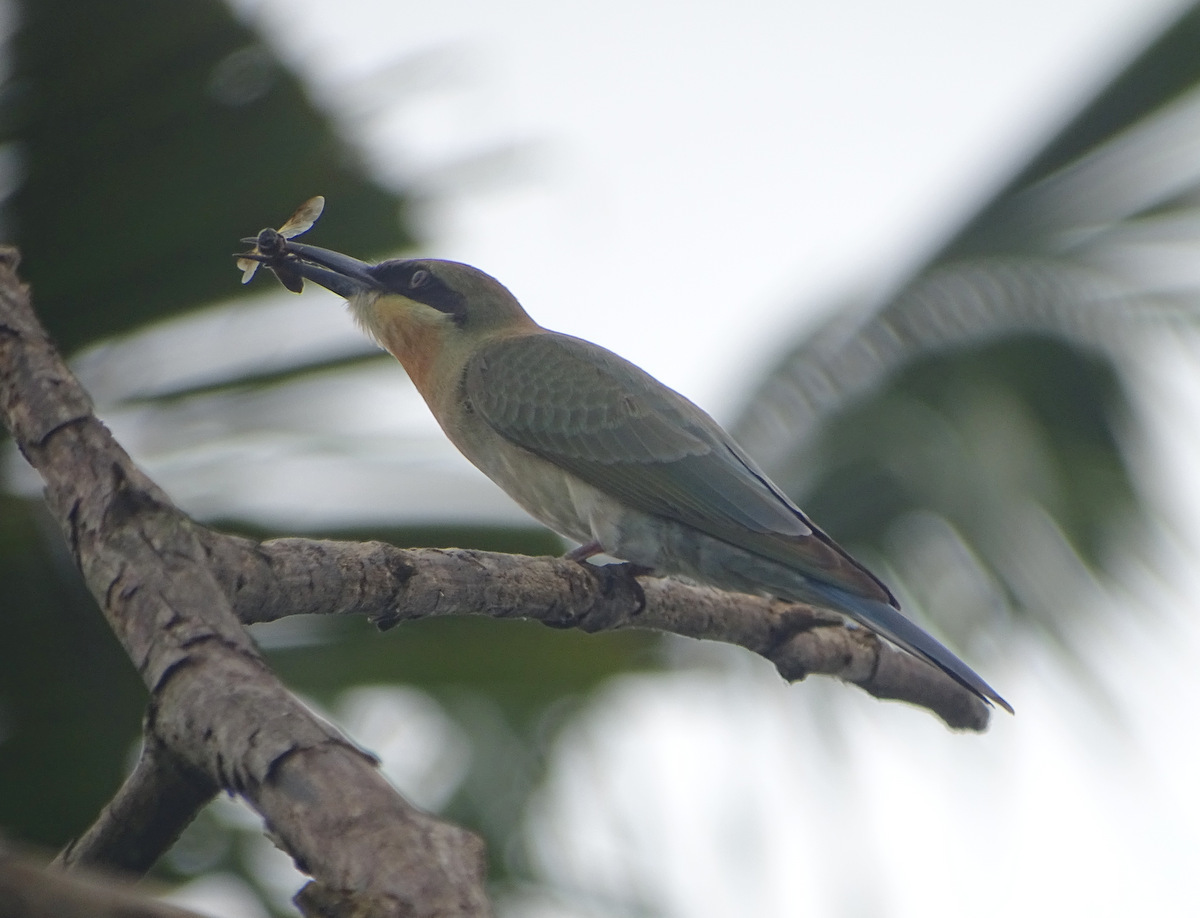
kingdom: Animalia
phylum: Chordata
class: Aves
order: Coraciiformes
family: Meropidae
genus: Merops
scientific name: Merops philippinus
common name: Blue-tailed bee-eater
